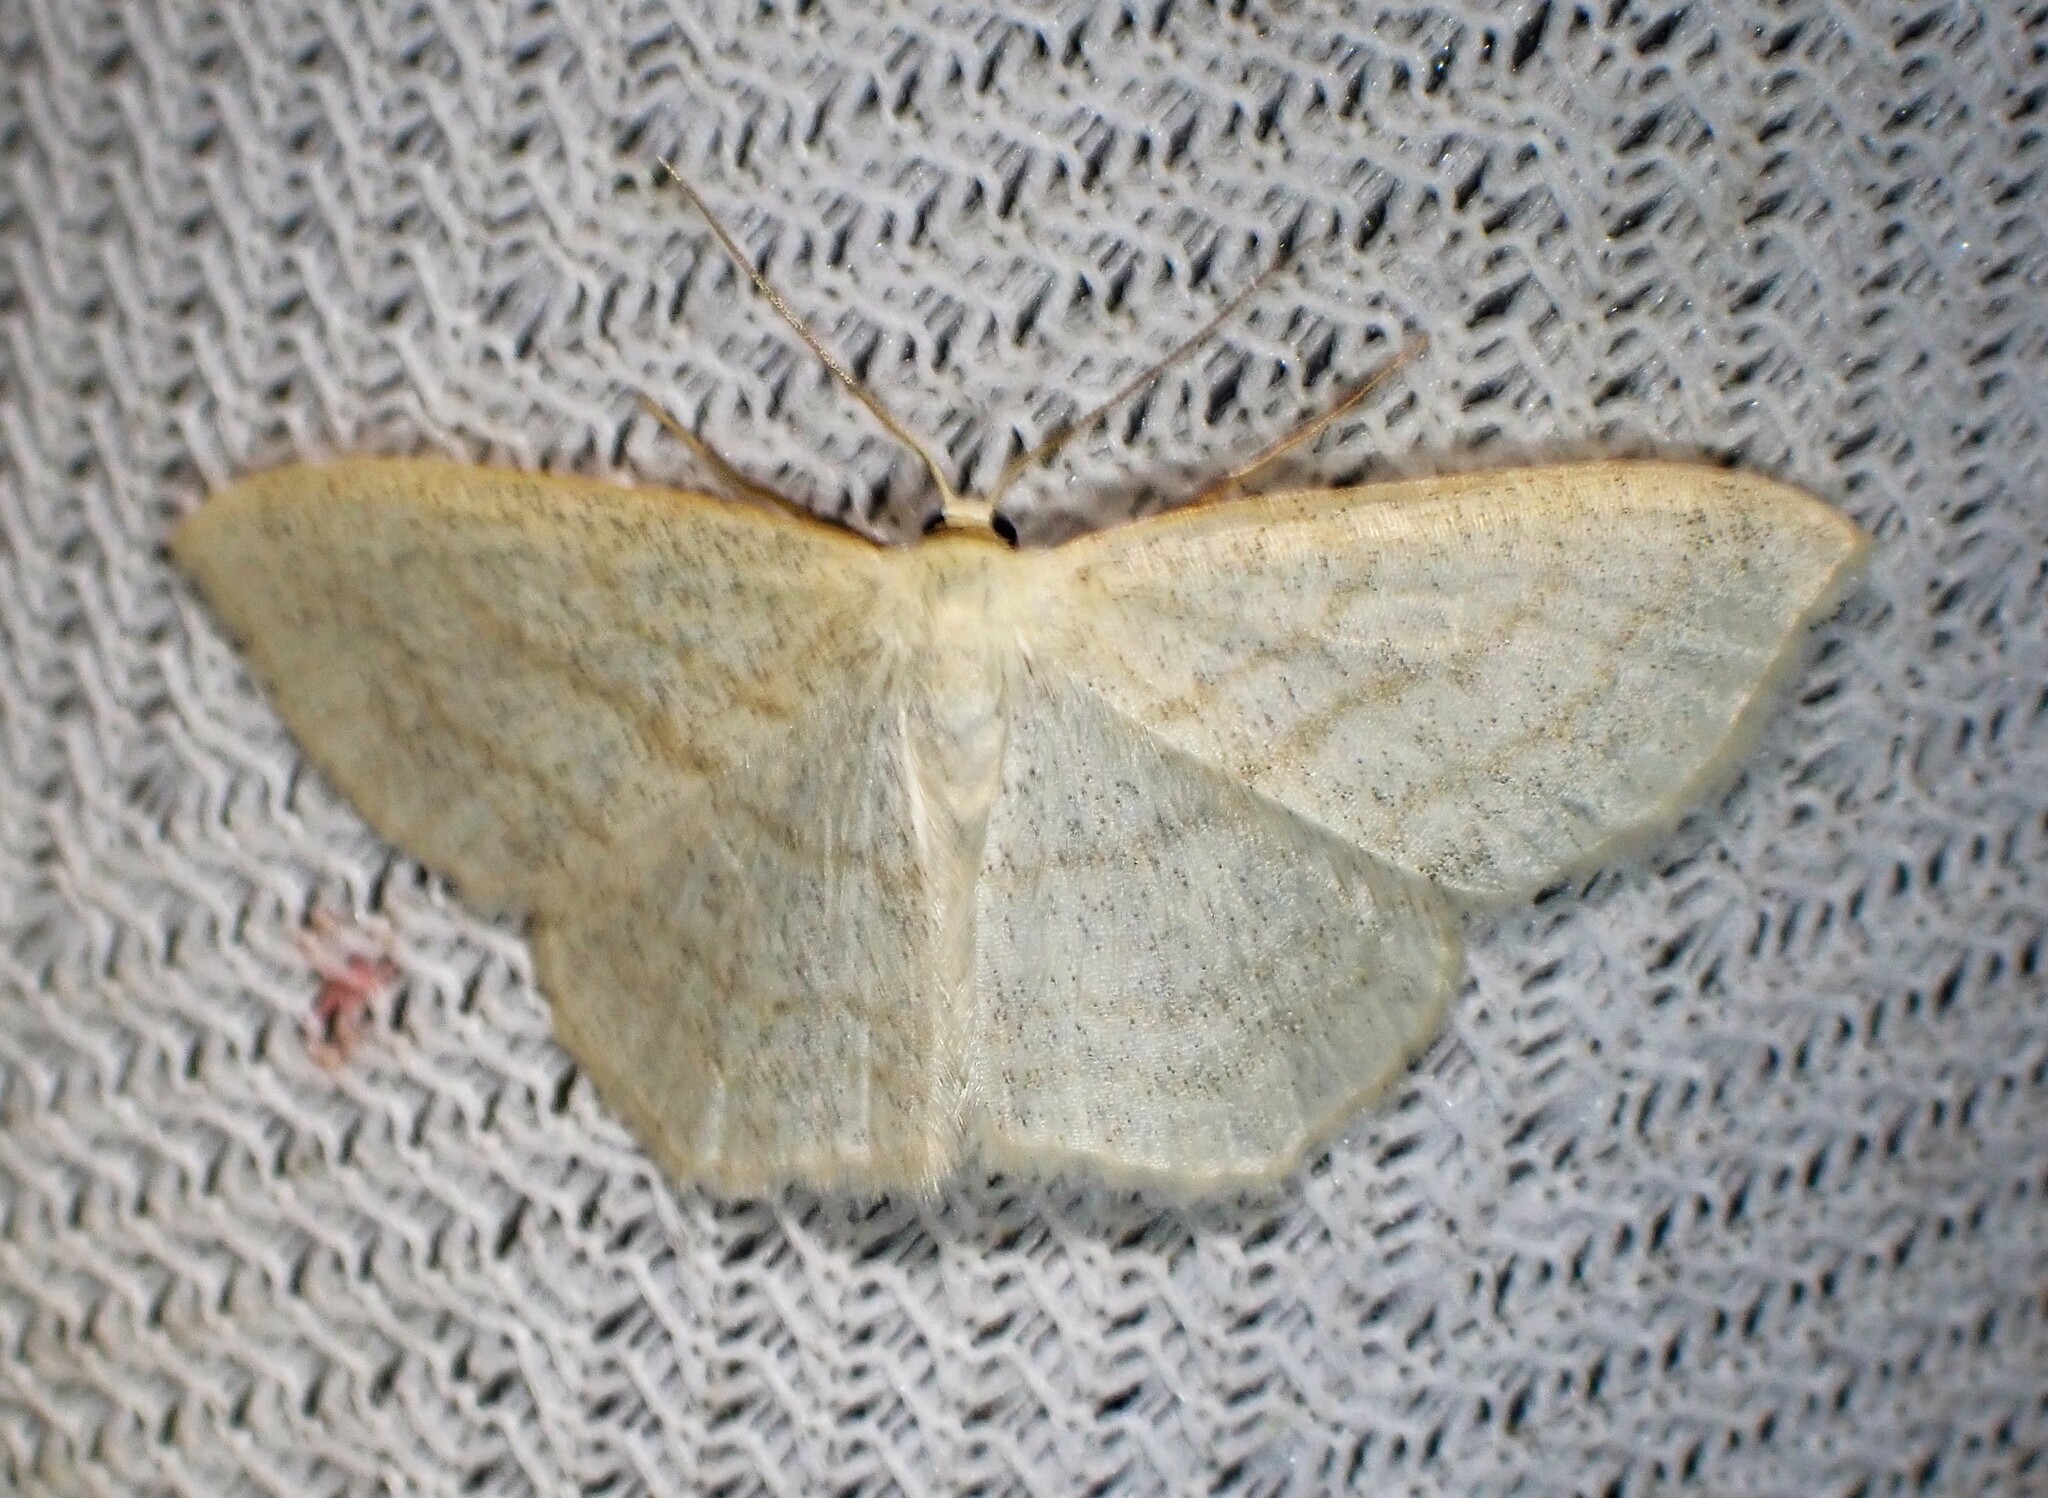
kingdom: Animalia
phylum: Arthropoda
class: Insecta
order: Lepidoptera
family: Geometridae
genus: Scopula
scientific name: Scopula junctaria
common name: Simple wave
